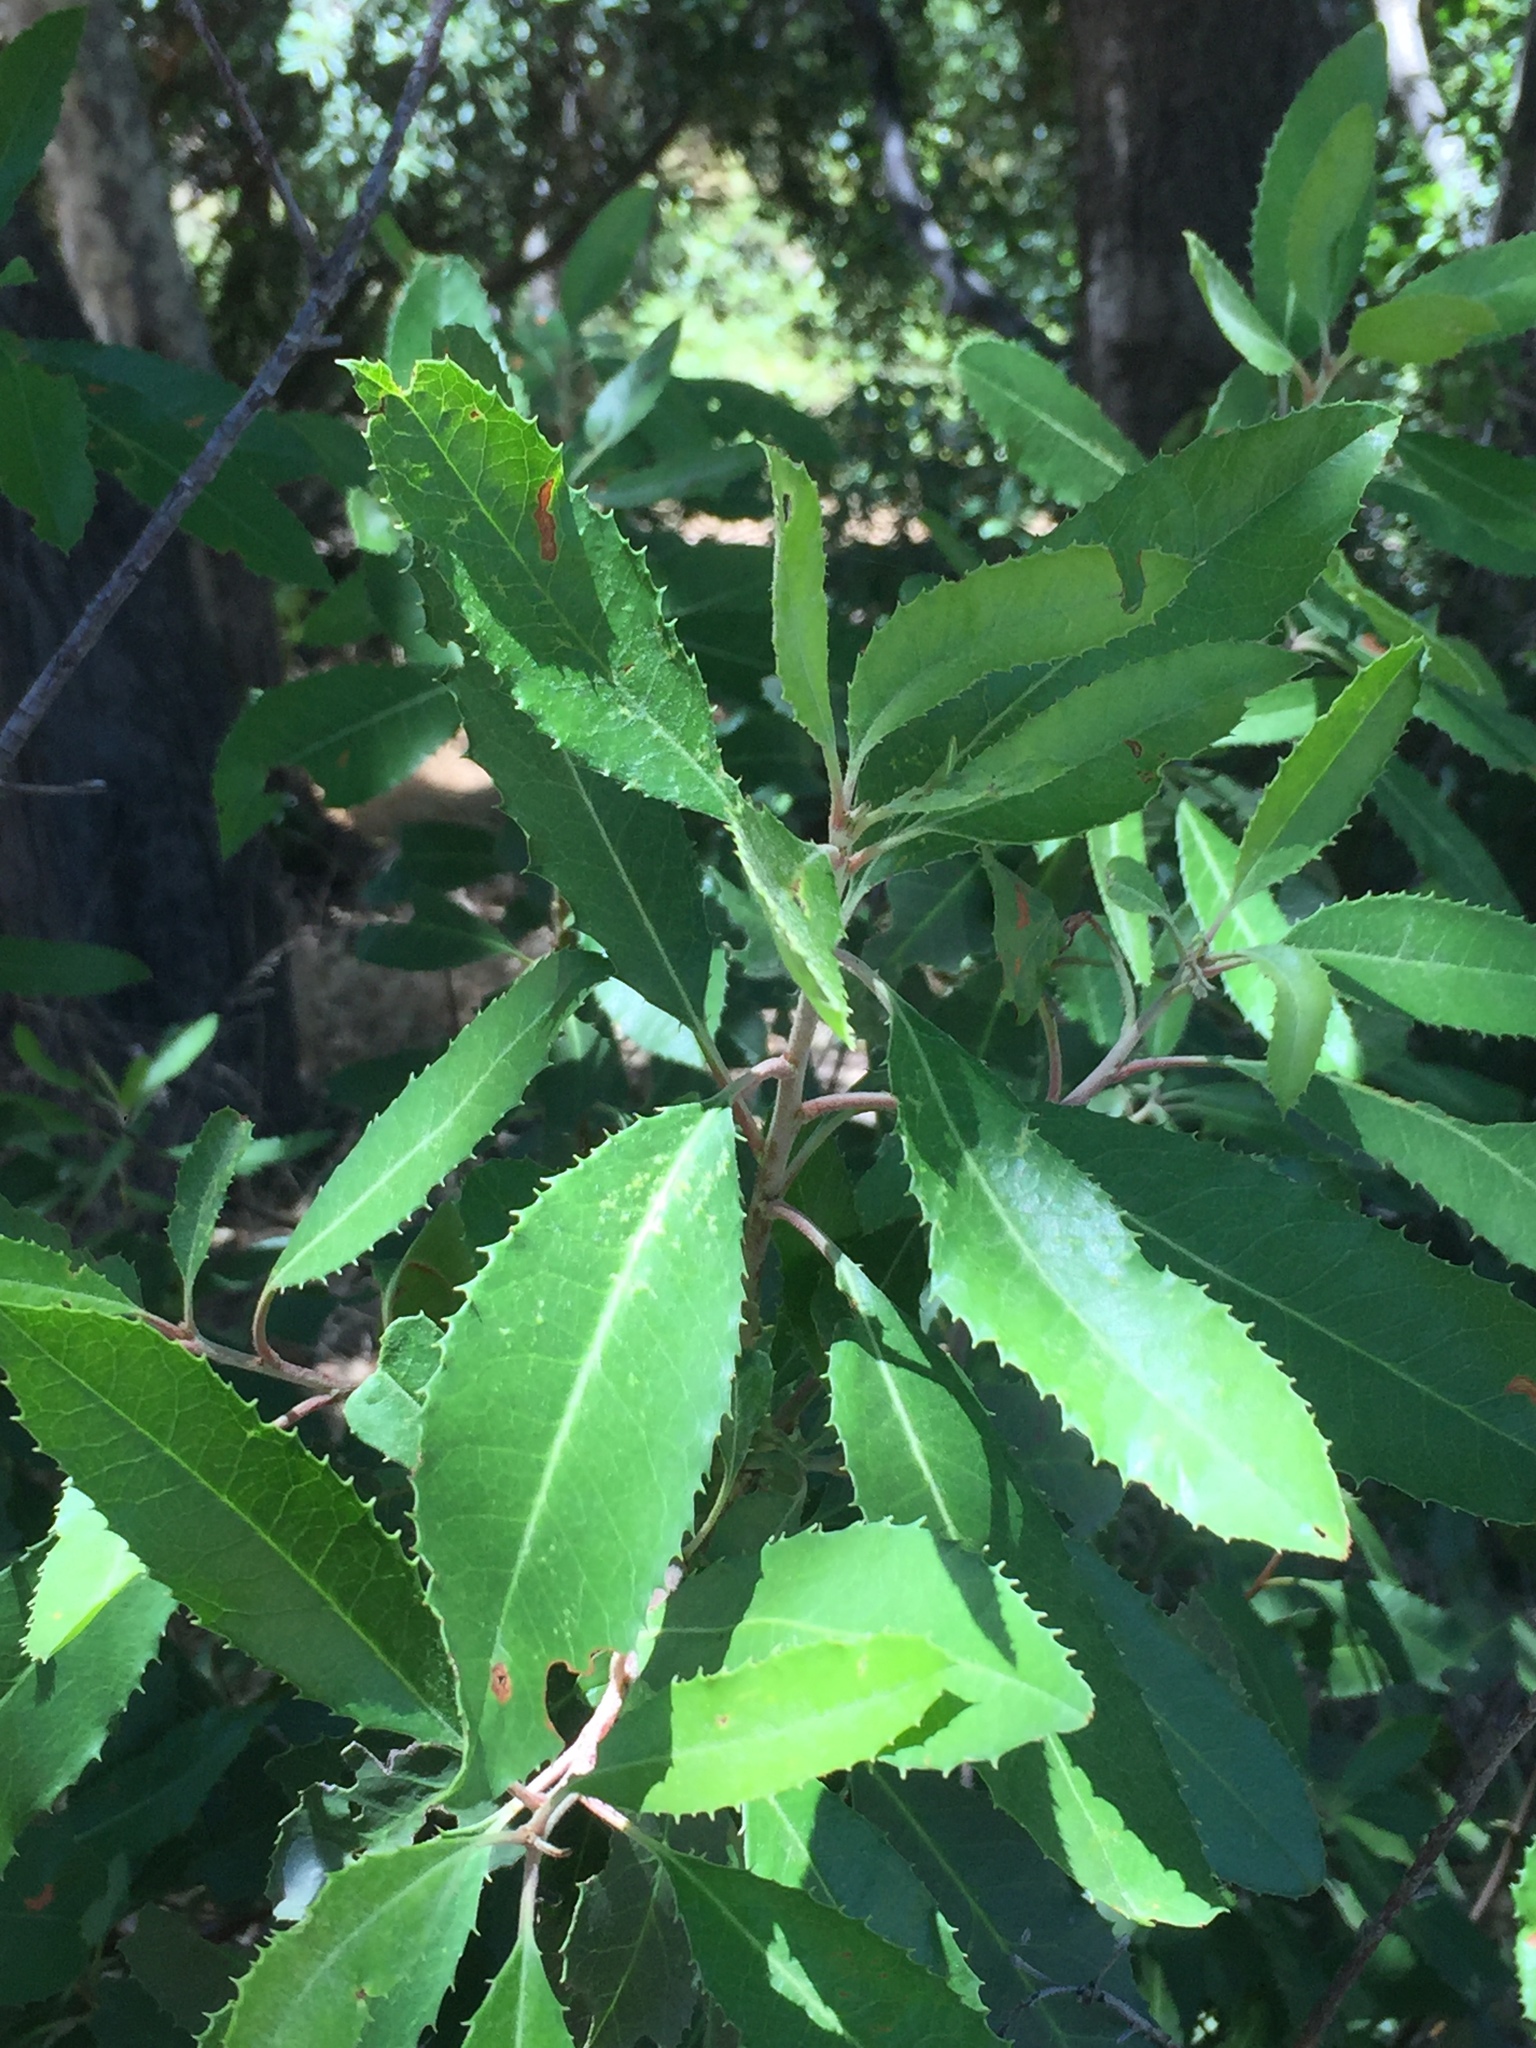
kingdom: Plantae
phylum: Tracheophyta
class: Magnoliopsida
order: Rosales
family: Rosaceae
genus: Heteromeles
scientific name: Heteromeles arbutifolia
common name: California-holly
